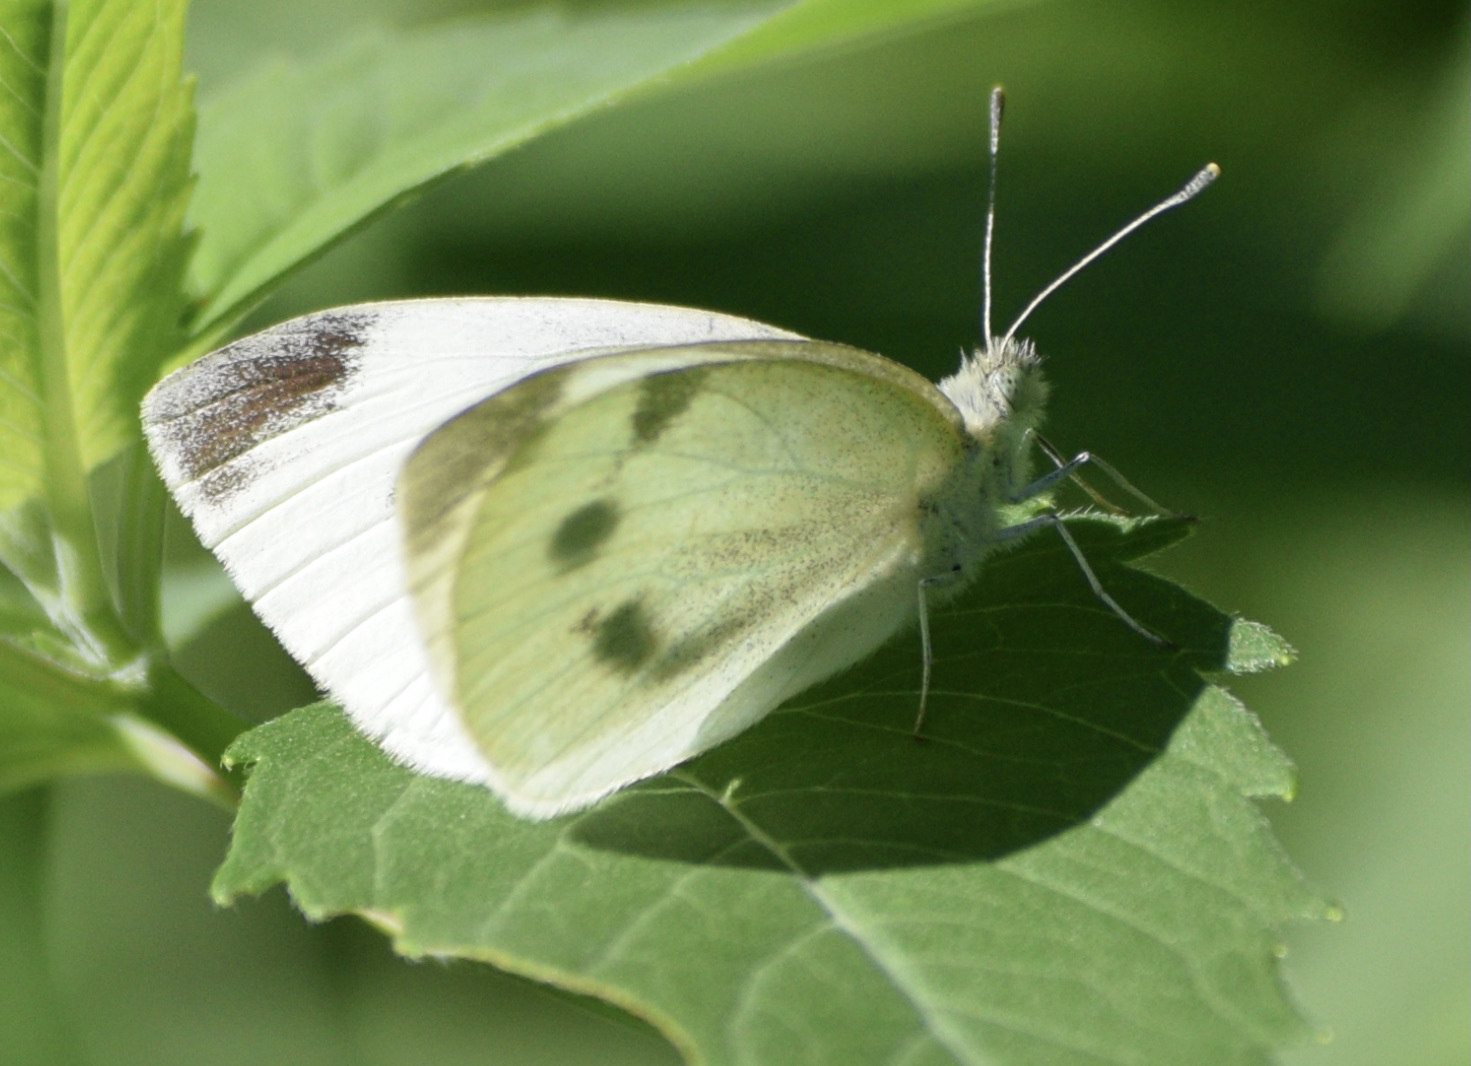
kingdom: Animalia
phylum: Arthropoda
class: Insecta
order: Lepidoptera
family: Pieridae
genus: Pieris
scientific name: Pieris rapae
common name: Small white
